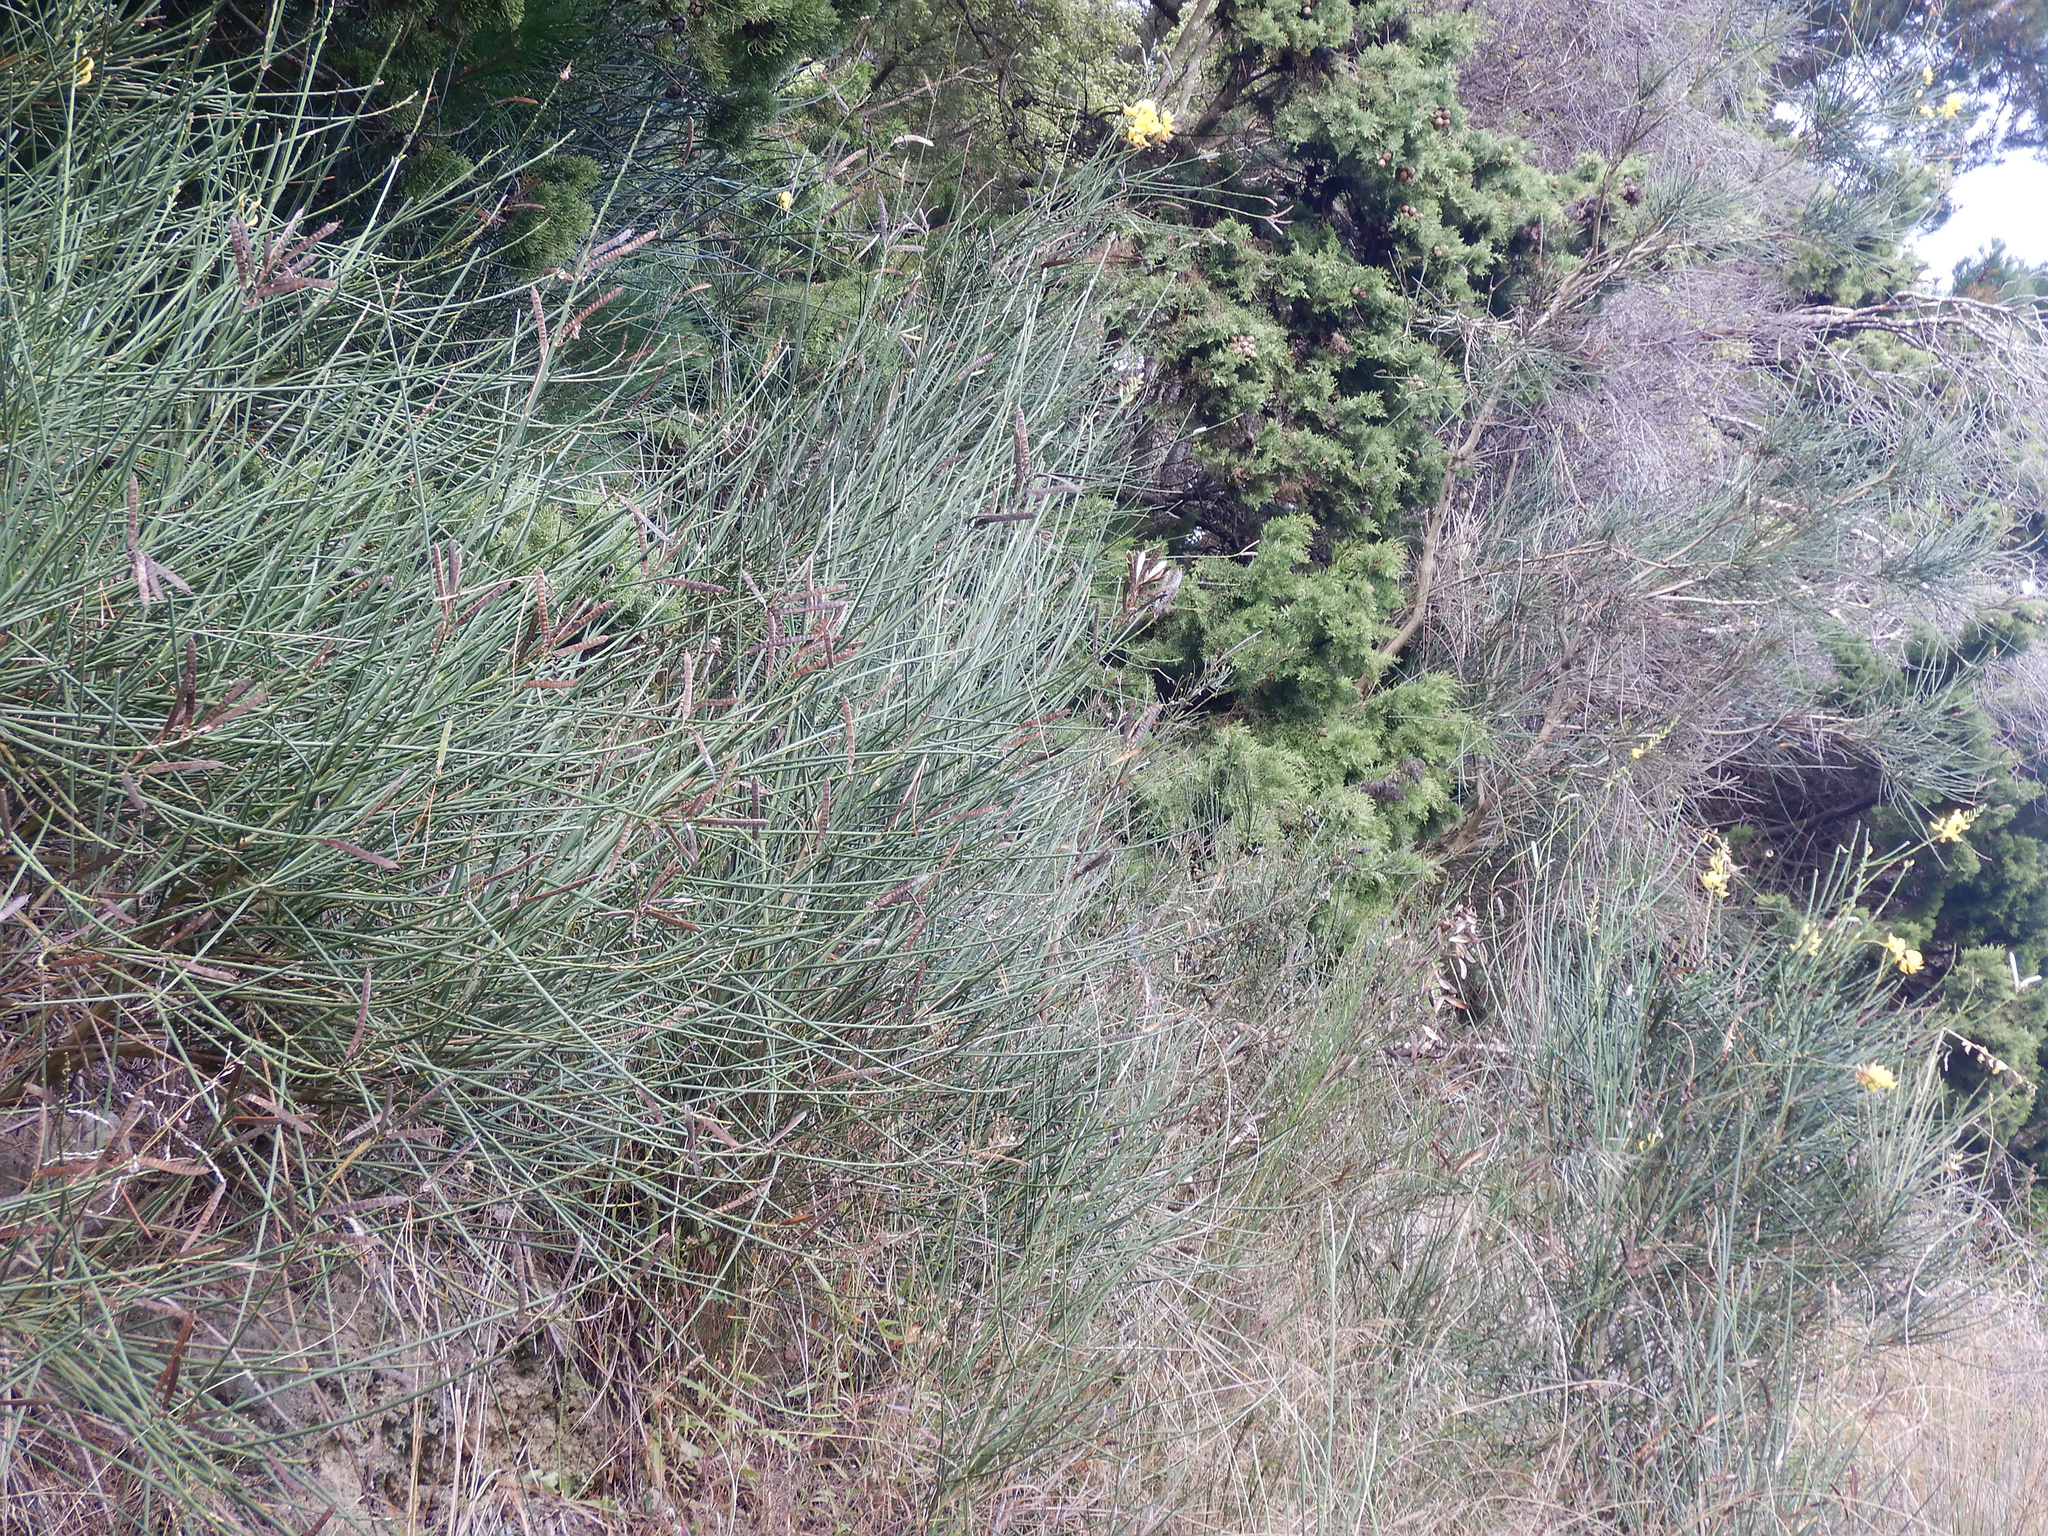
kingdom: Plantae
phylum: Tracheophyta
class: Magnoliopsida
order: Fabales
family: Fabaceae
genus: Spartium
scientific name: Spartium junceum
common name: Spanish broom
